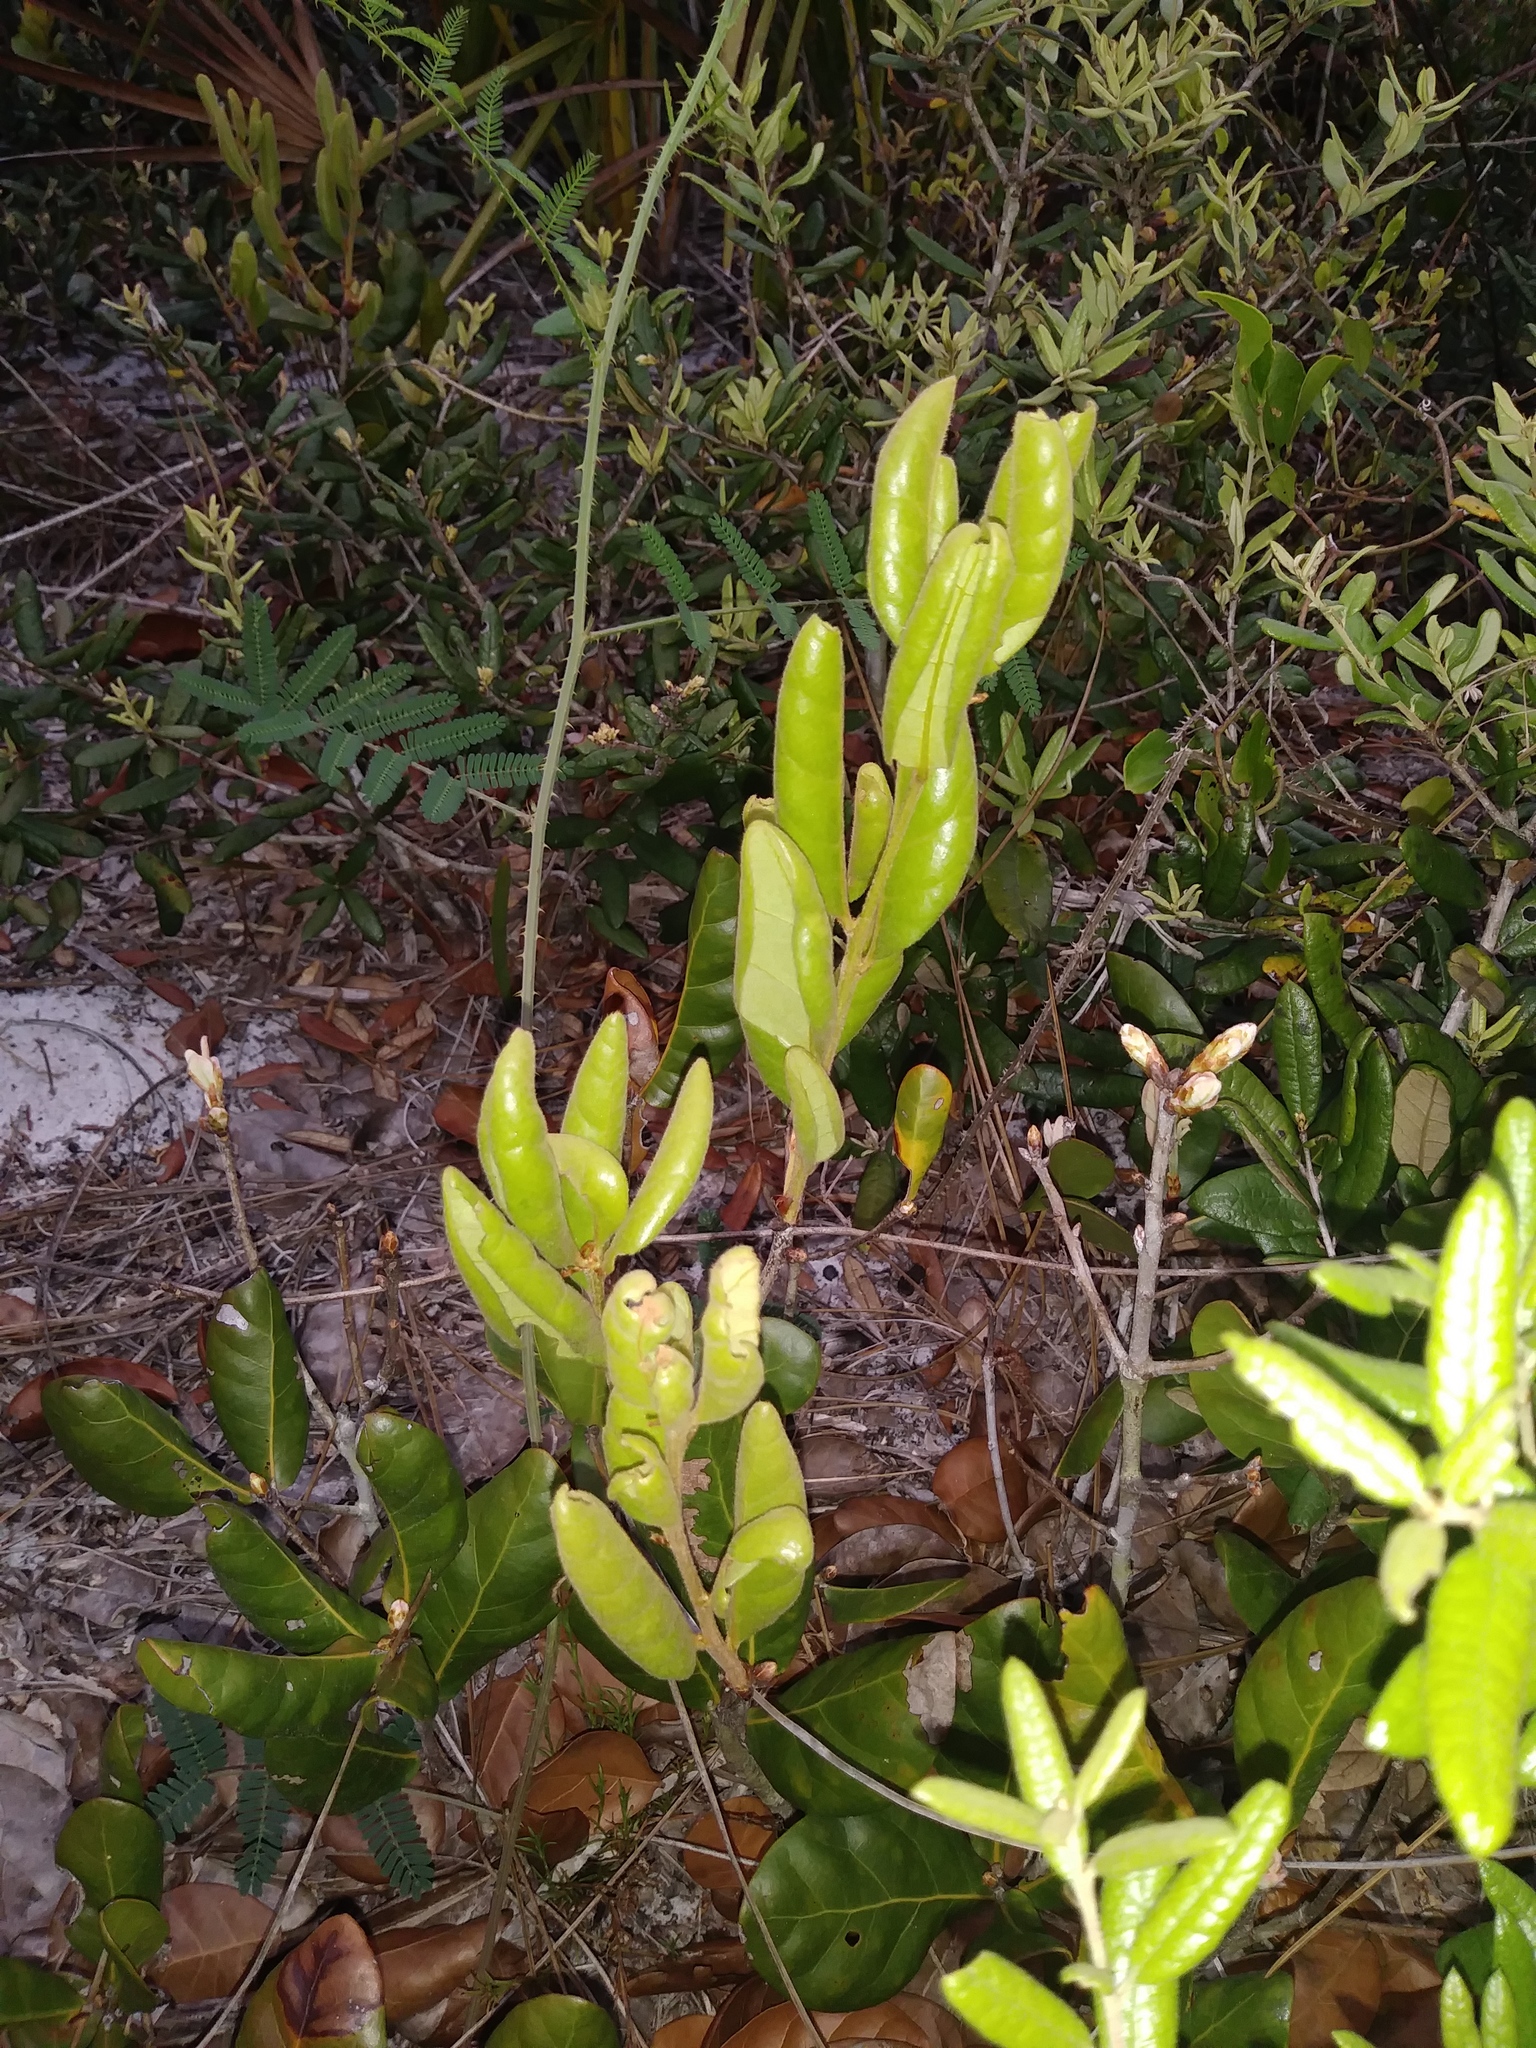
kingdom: Plantae
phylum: Tracheophyta
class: Magnoliopsida
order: Fagales
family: Fagaceae
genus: Quercus
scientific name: Quercus inopina
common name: Sandhill oak
